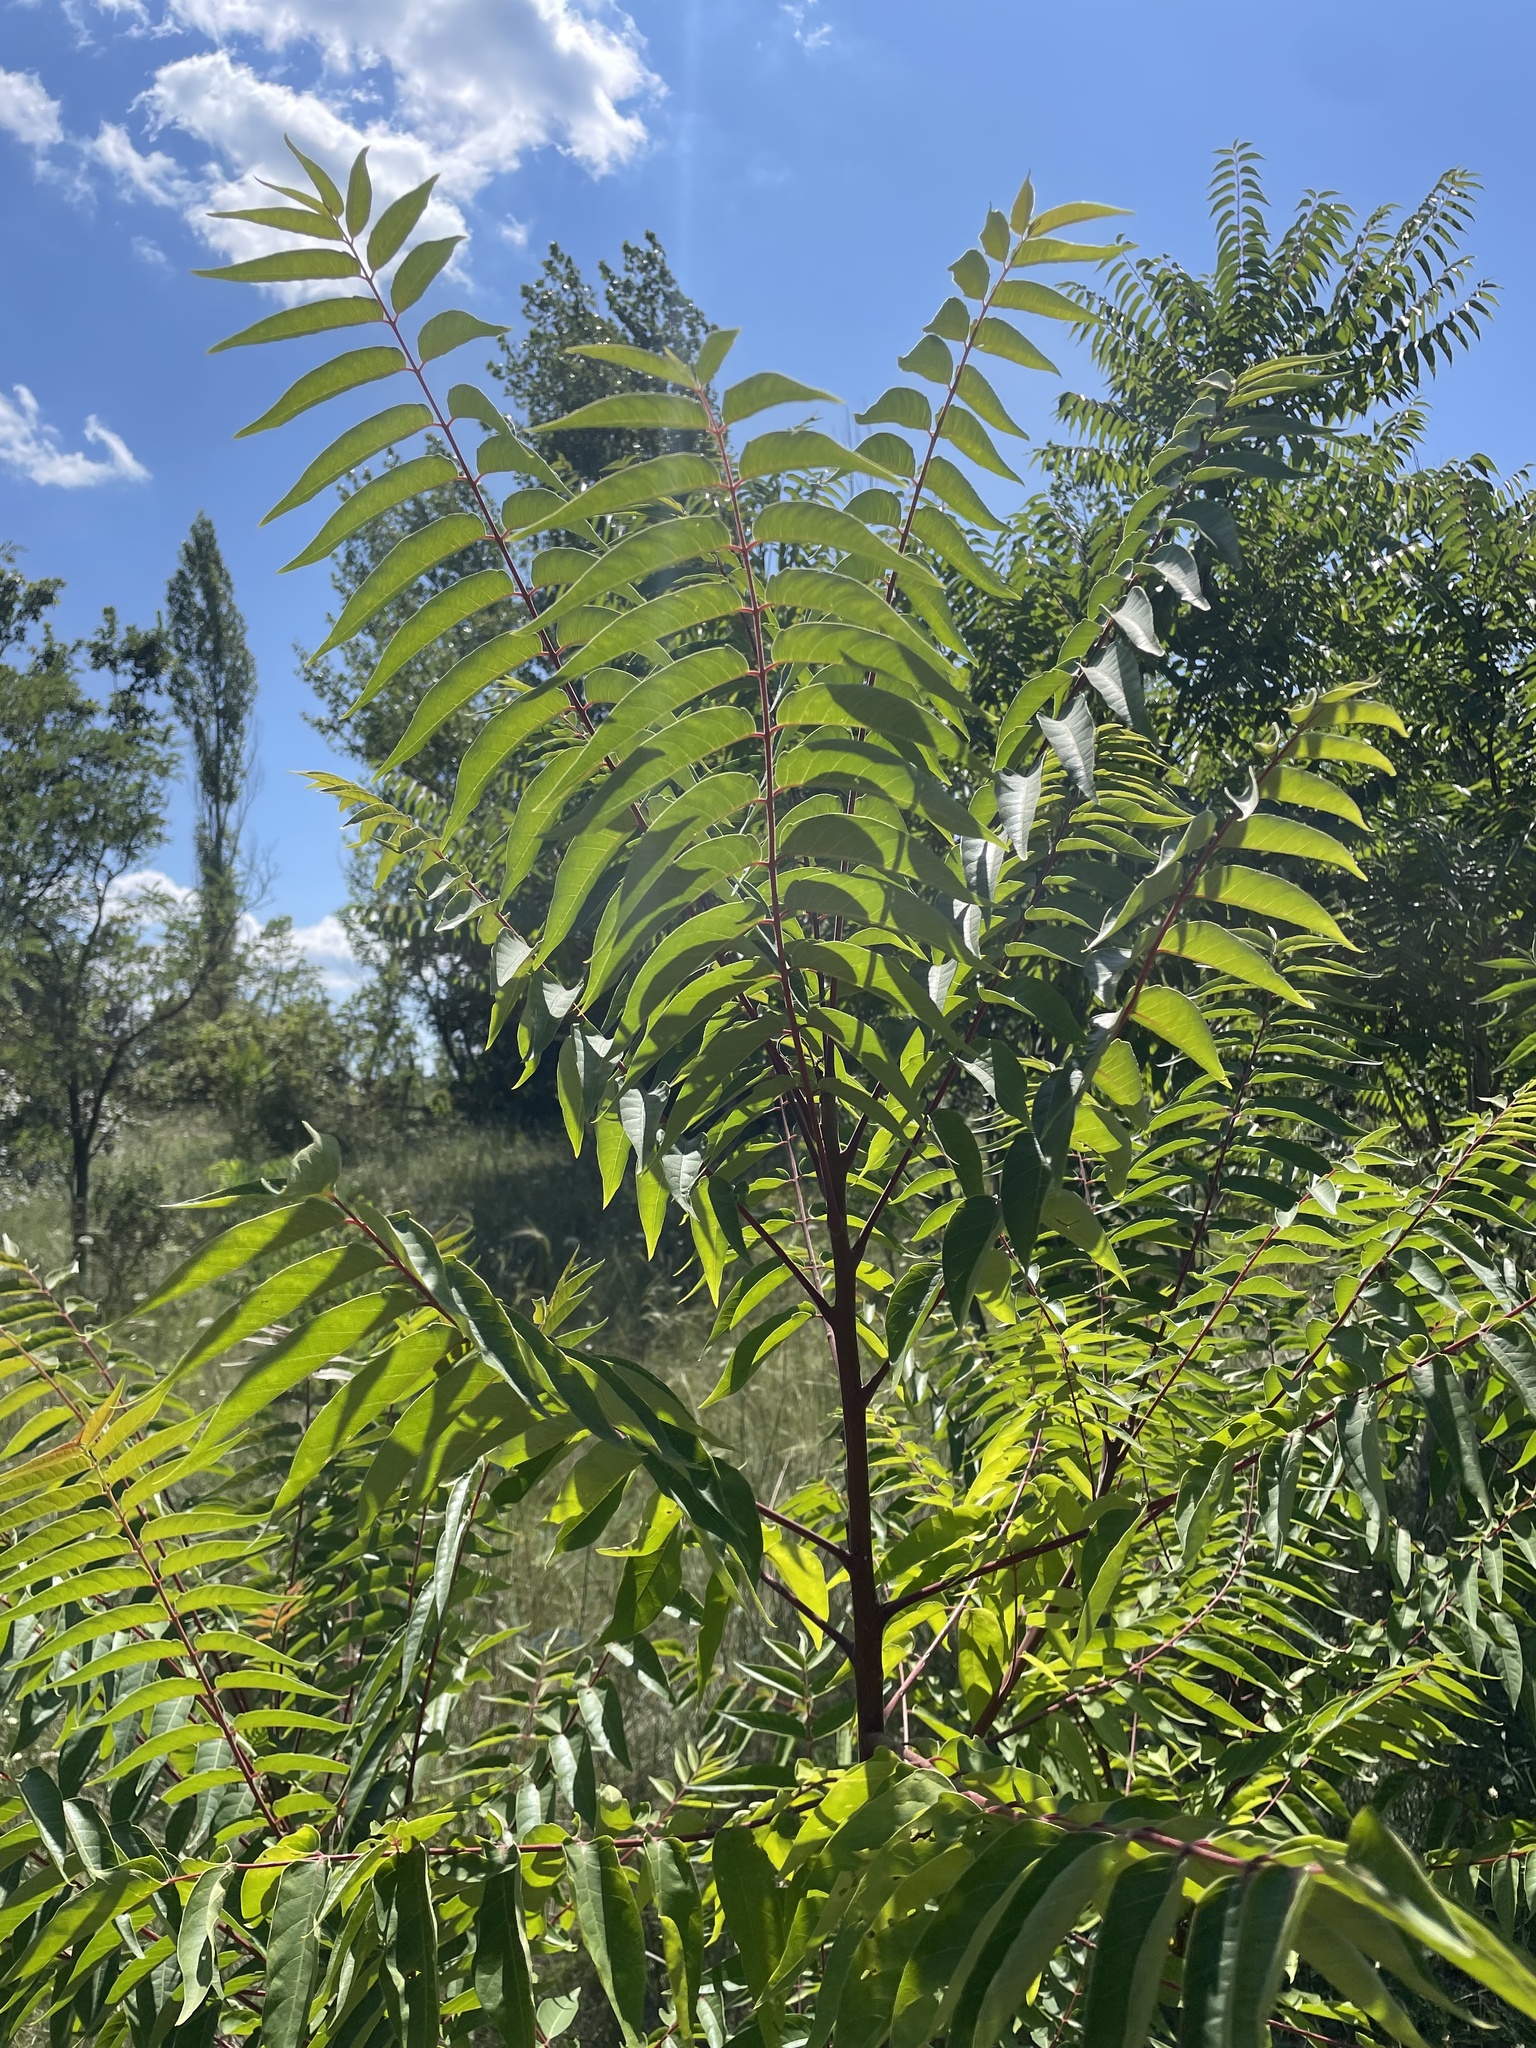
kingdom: Plantae
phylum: Tracheophyta
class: Magnoliopsida
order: Sapindales
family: Simaroubaceae
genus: Ailanthus
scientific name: Ailanthus altissima
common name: Tree-of-heaven
